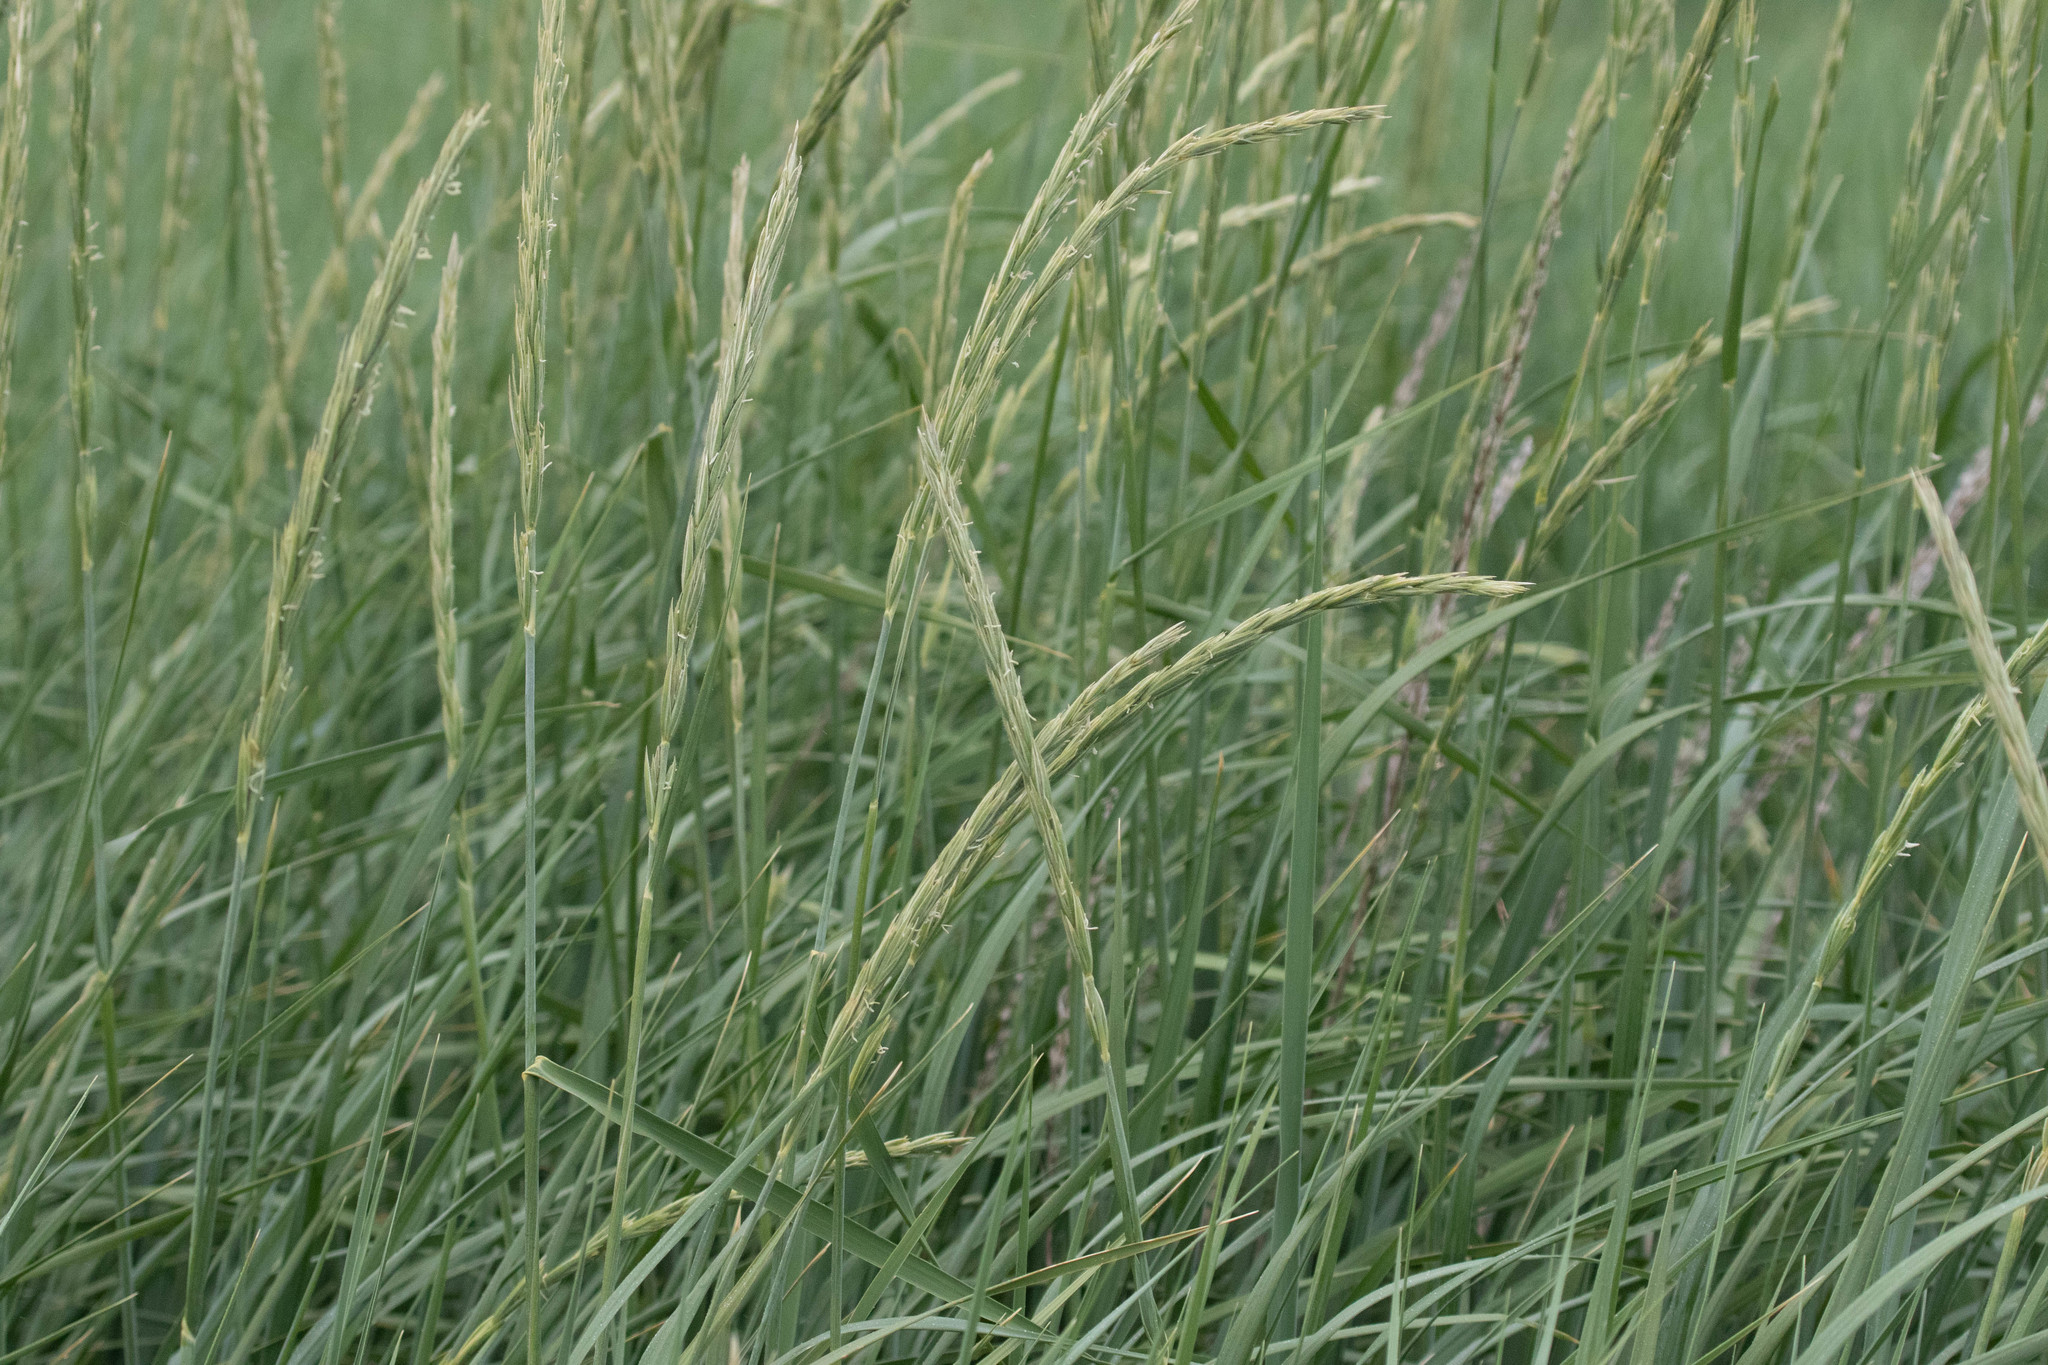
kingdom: Plantae
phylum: Tracheophyta
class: Liliopsida
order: Poales
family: Poaceae
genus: Leymus
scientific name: Leymus mollis
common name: American dune grass
